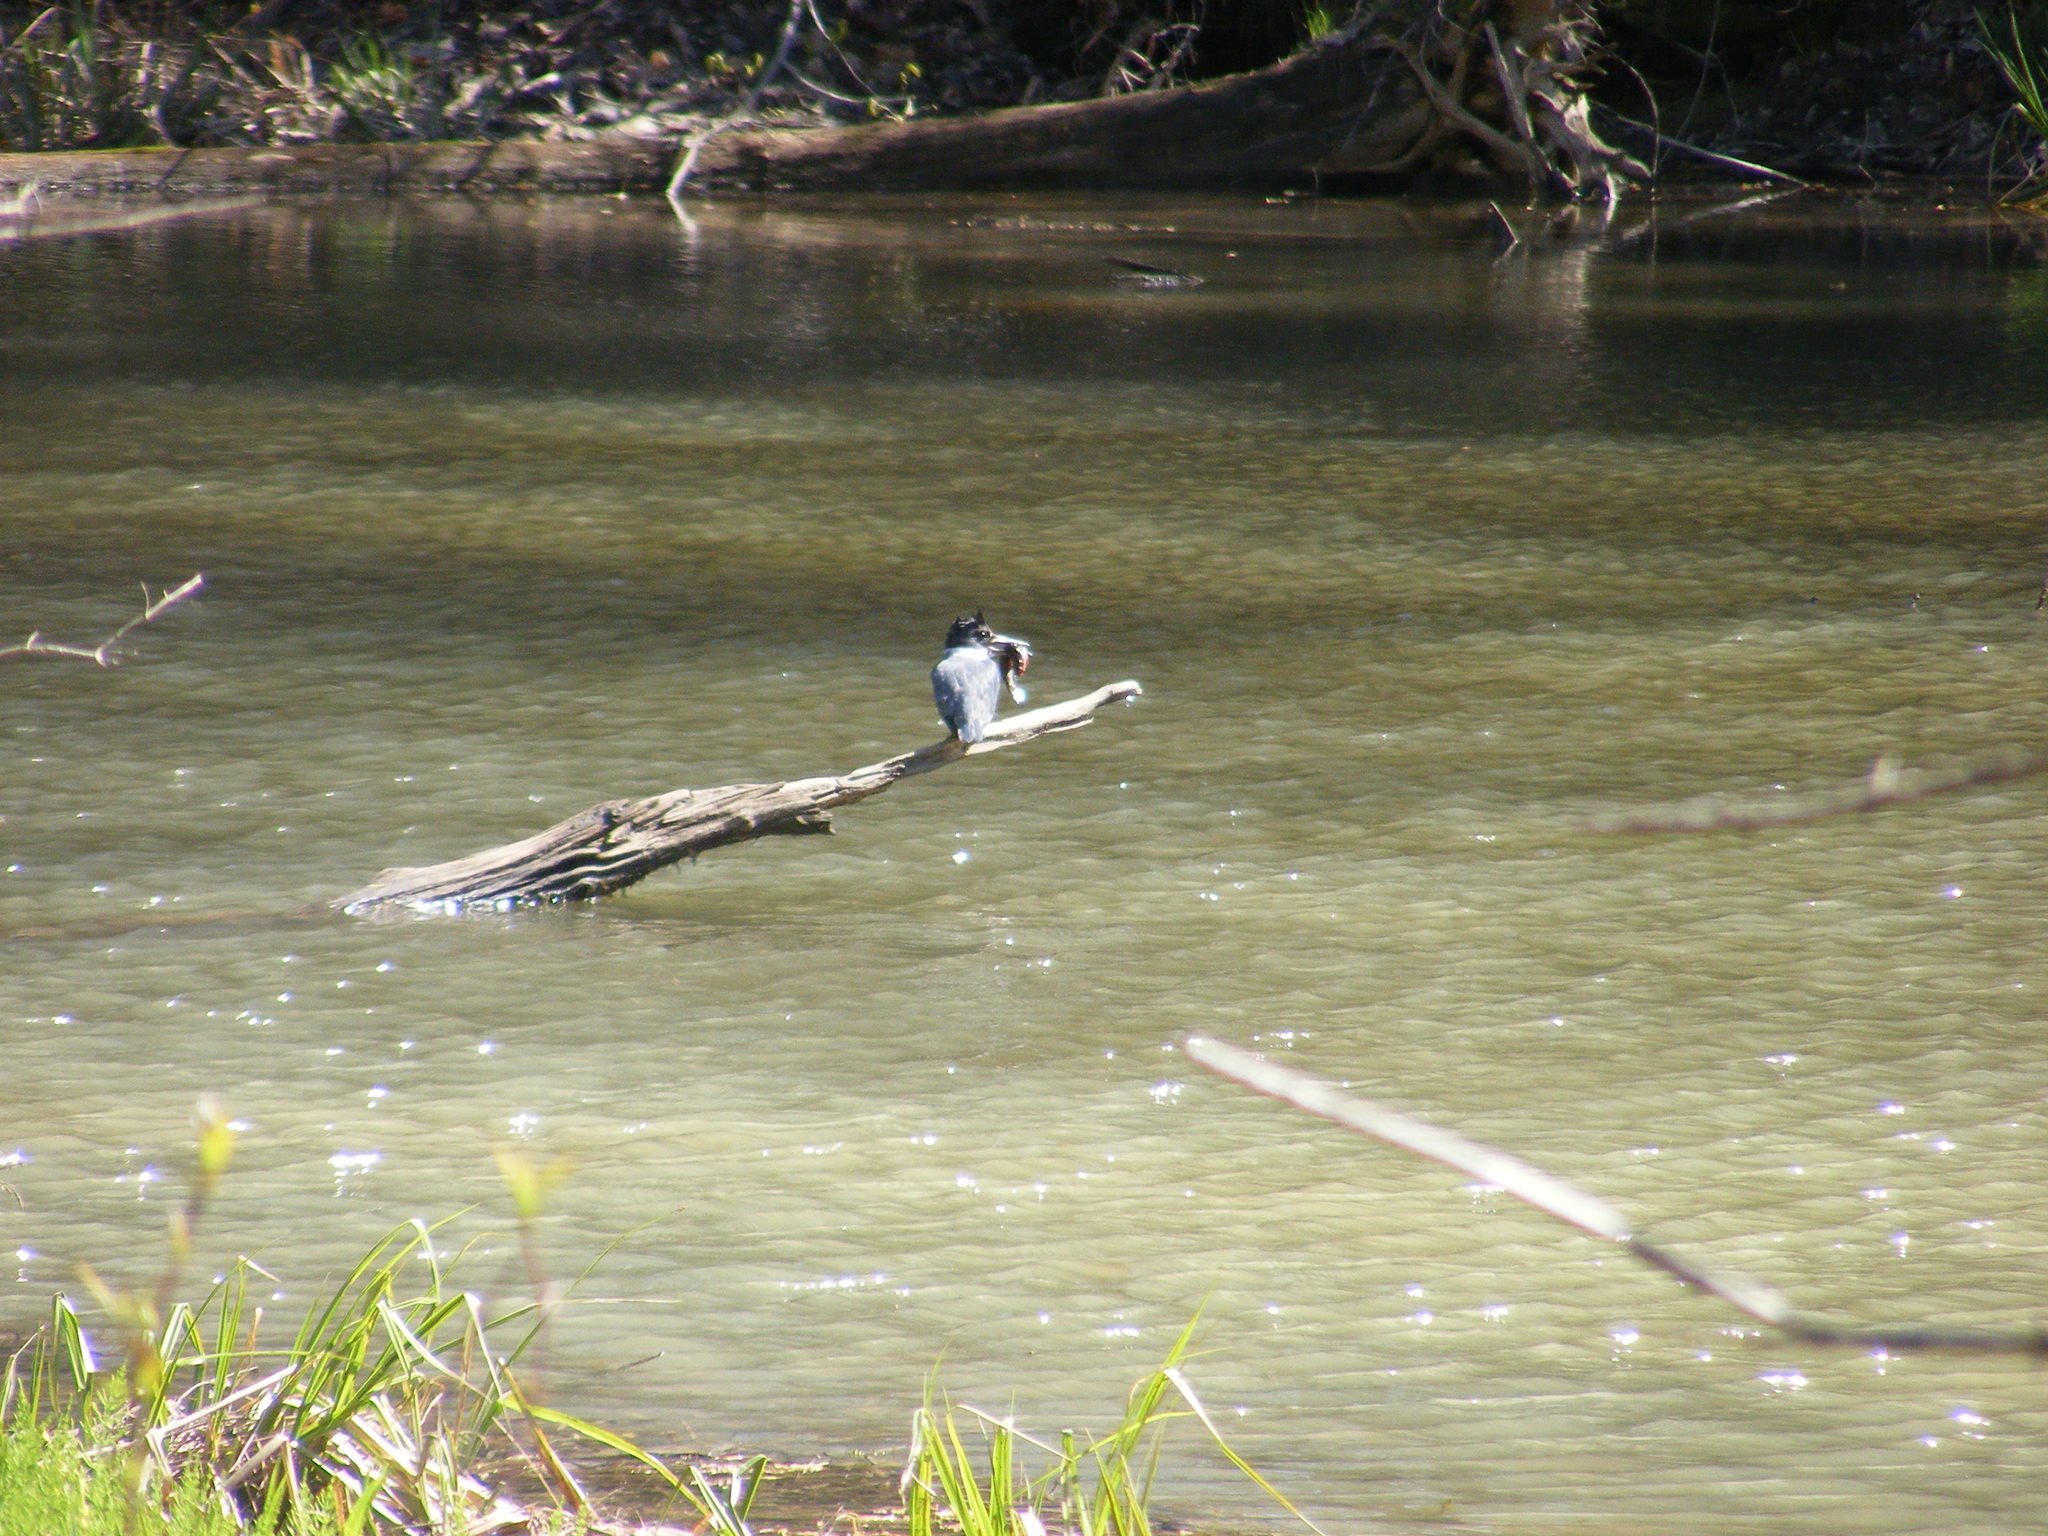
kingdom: Animalia
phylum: Chordata
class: Aves
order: Coraciiformes
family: Alcedinidae
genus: Megaceryle
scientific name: Megaceryle alcyon
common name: Belted kingfisher
